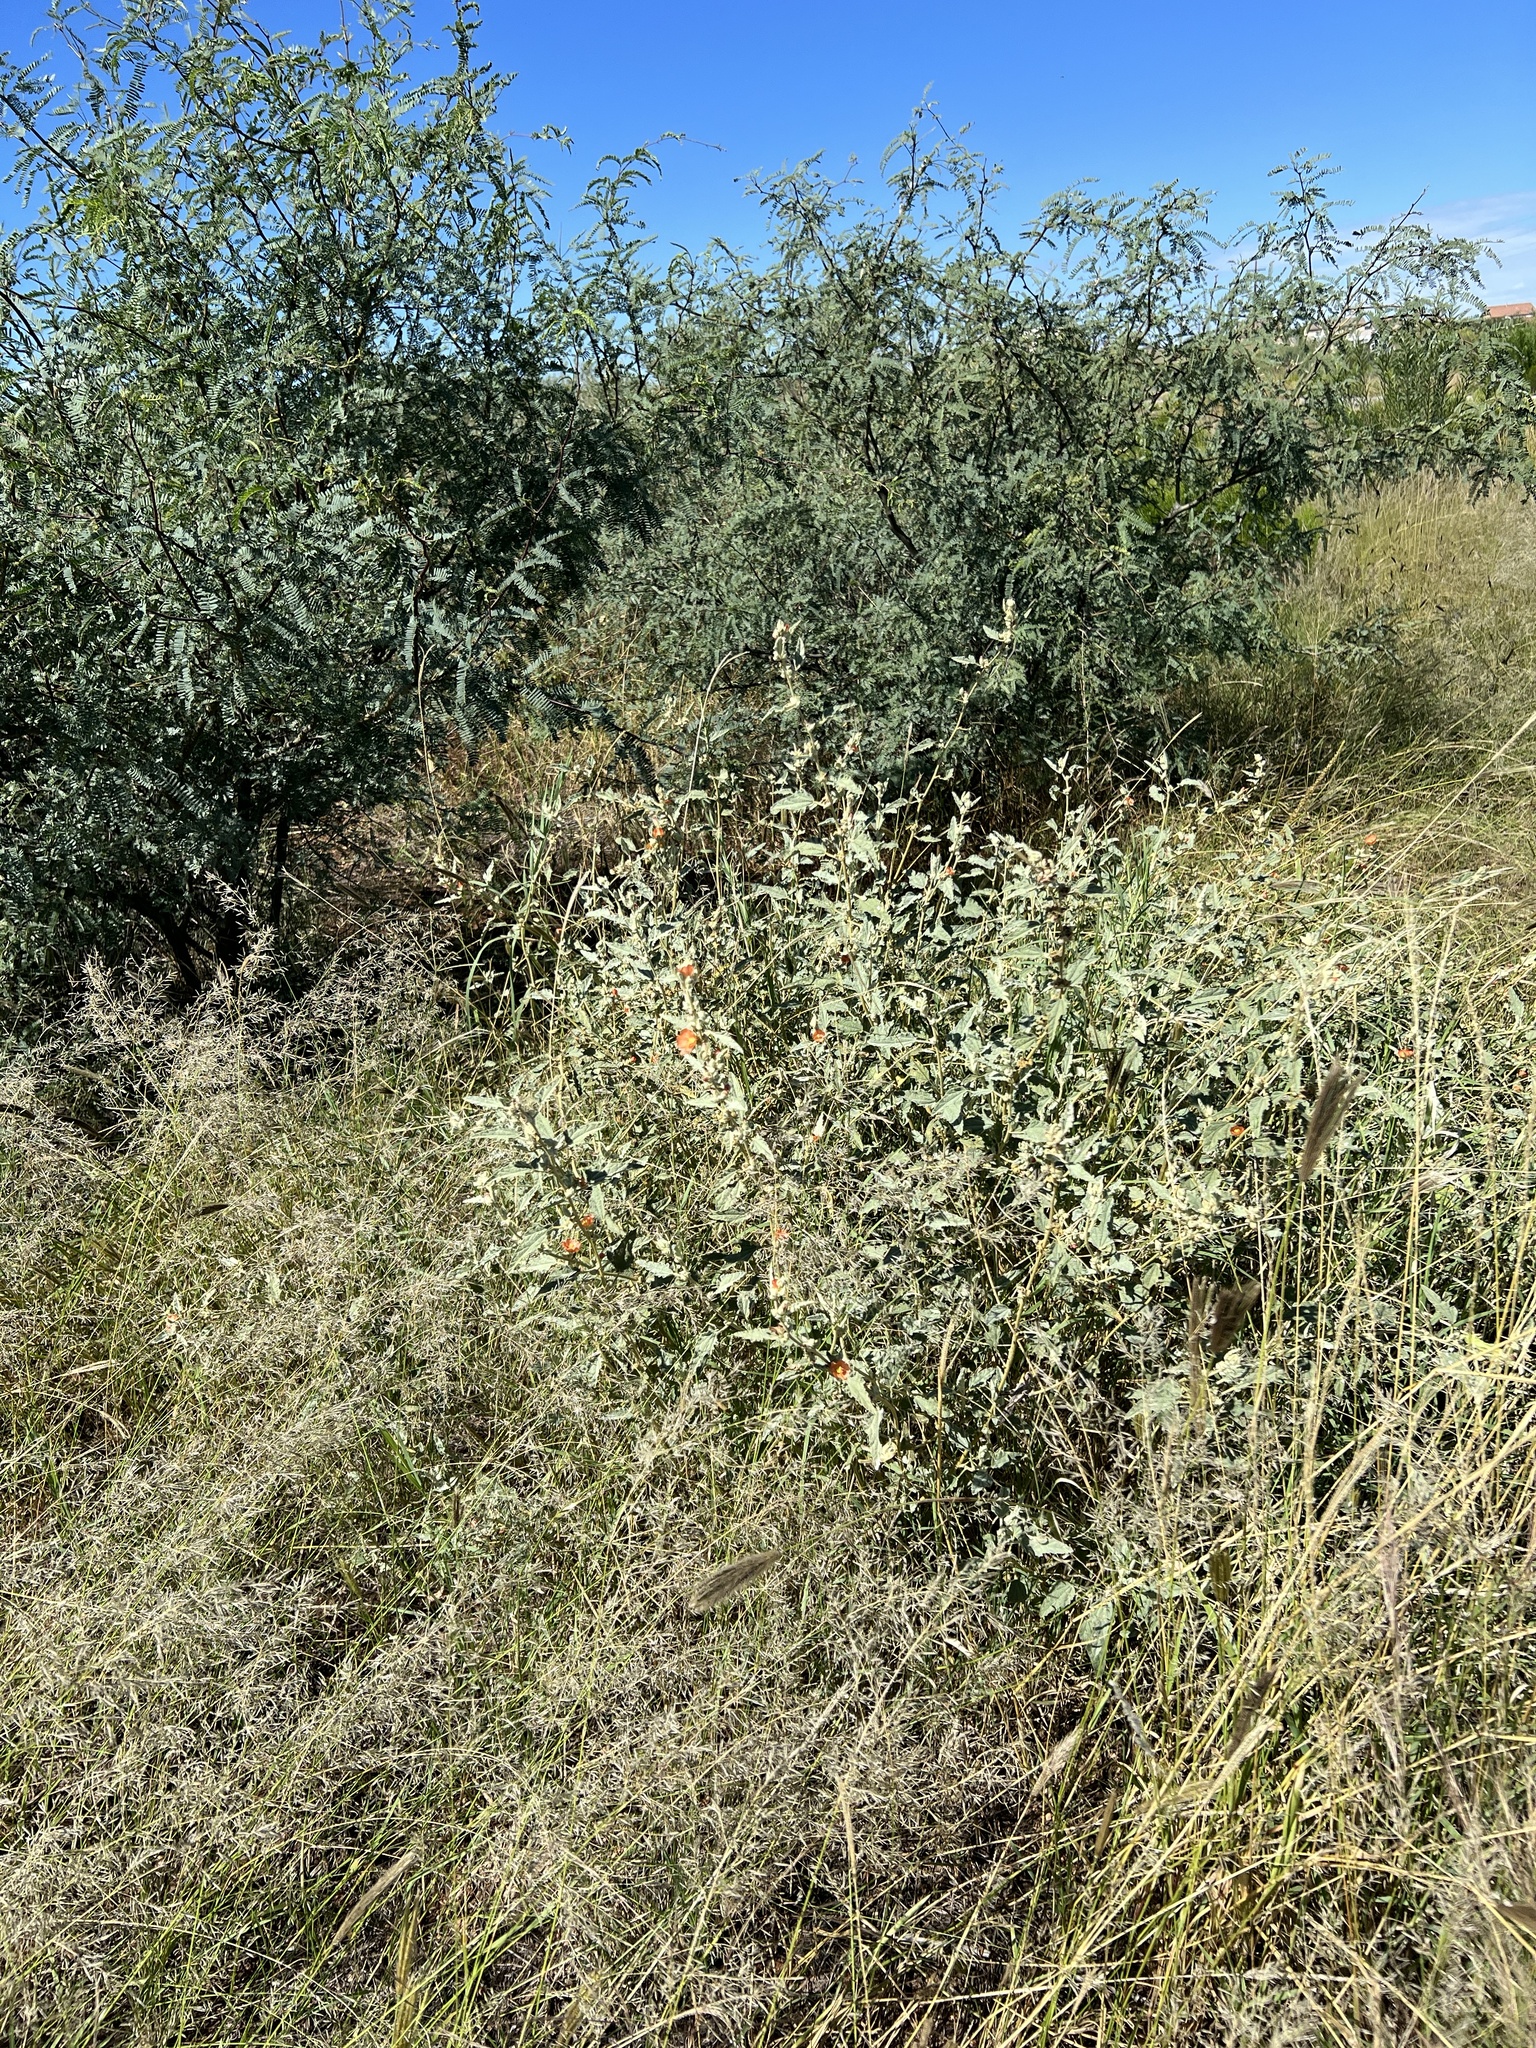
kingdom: Plantae
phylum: Tracheophyta
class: Magnoliopsida
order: Malvales
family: Malvaceae
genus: Sphaeralcea
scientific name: Sphaeralcea hastulata
